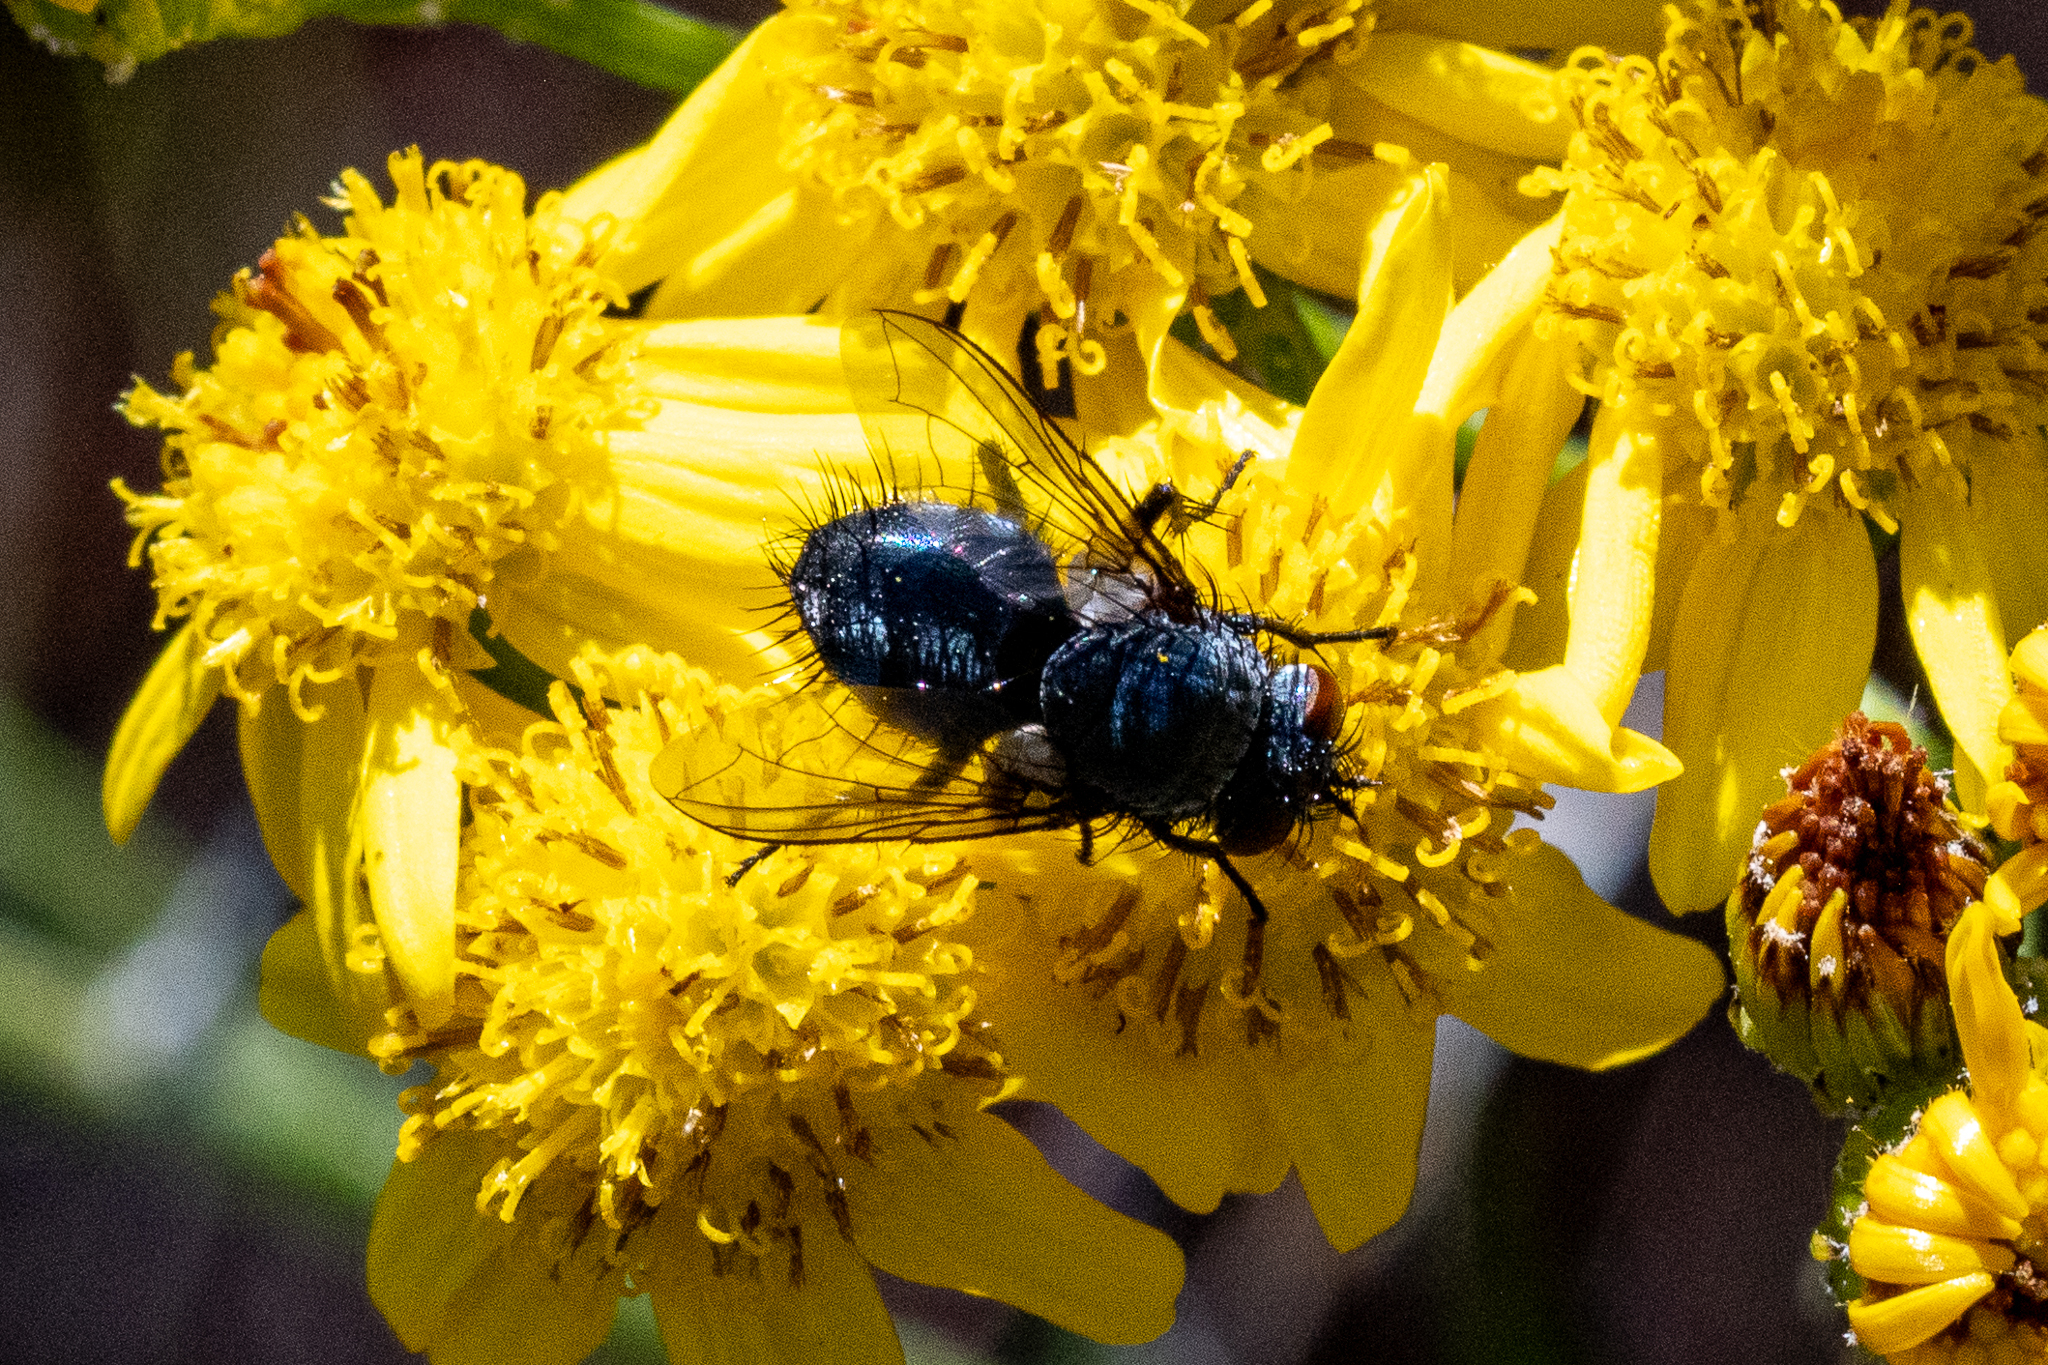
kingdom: Animalia
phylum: Arthropoda
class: Insecta
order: Diptera
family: Calliphoridae
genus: Calliphora
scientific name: Calliphora vicina
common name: Common blow flie
